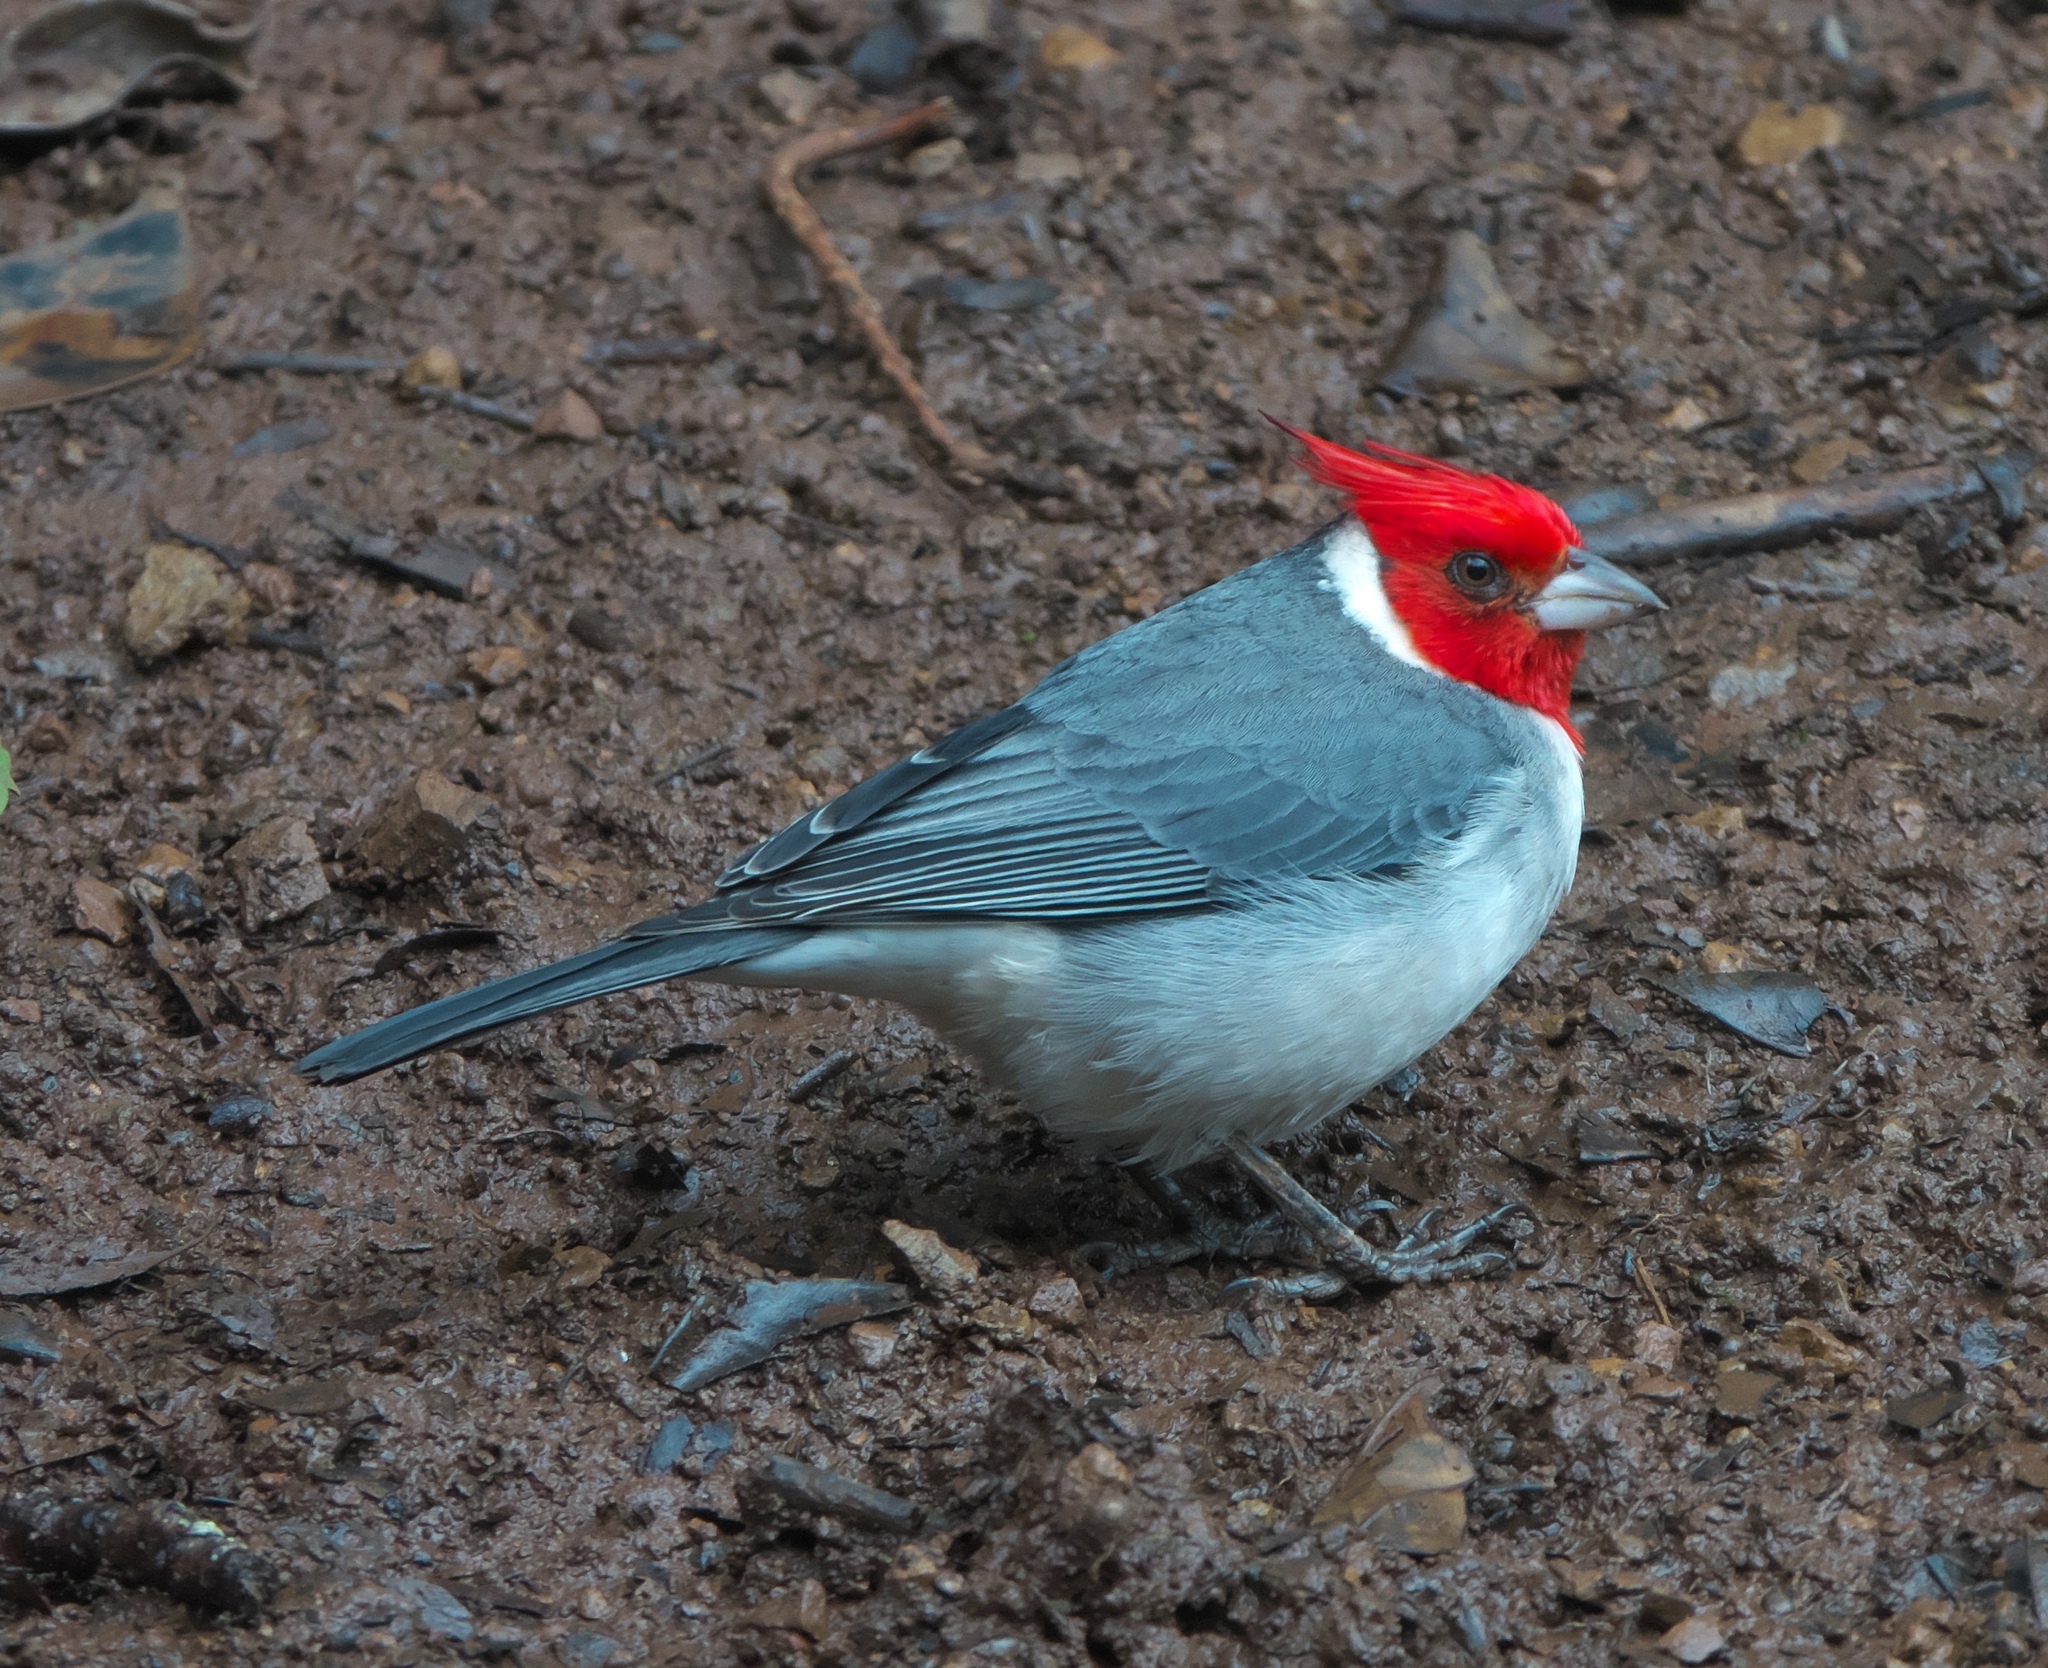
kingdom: Animalia
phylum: Chordata
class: Aves
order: Passeriformes
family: Thraupidae
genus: Paroaria
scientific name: Paroaria coronata
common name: Red-crested cardinal
